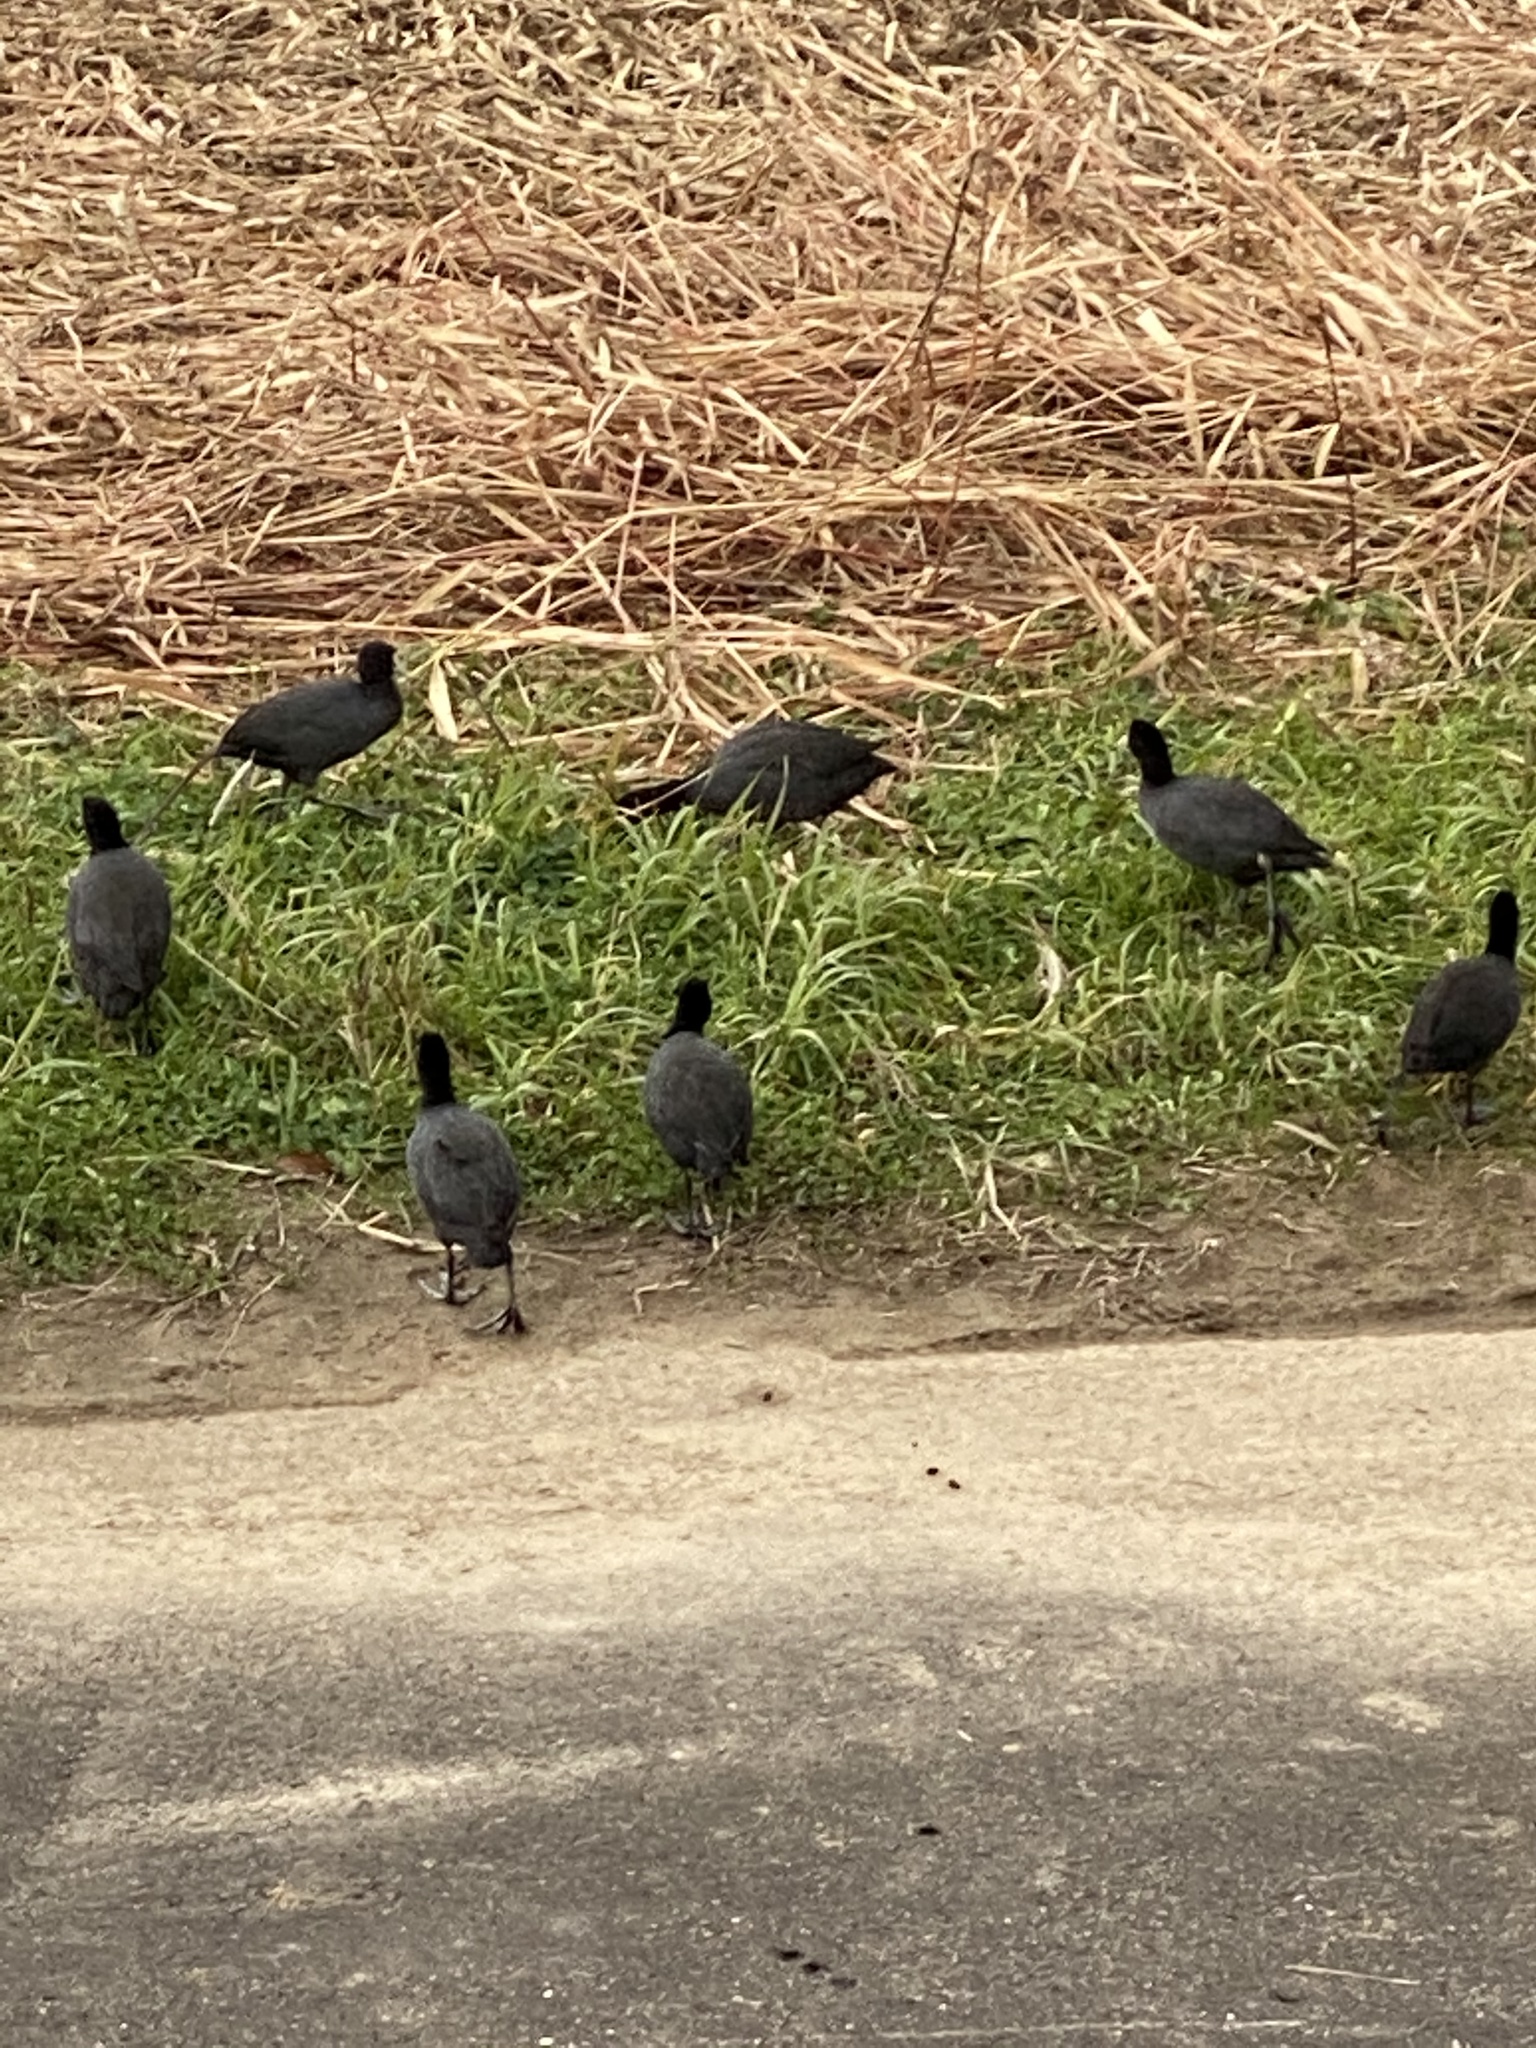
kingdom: Animalia
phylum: Chordata
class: Aves
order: Gruiformes
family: Rallidae
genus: Fulica
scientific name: Fulica atra
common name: Eurasian coot
